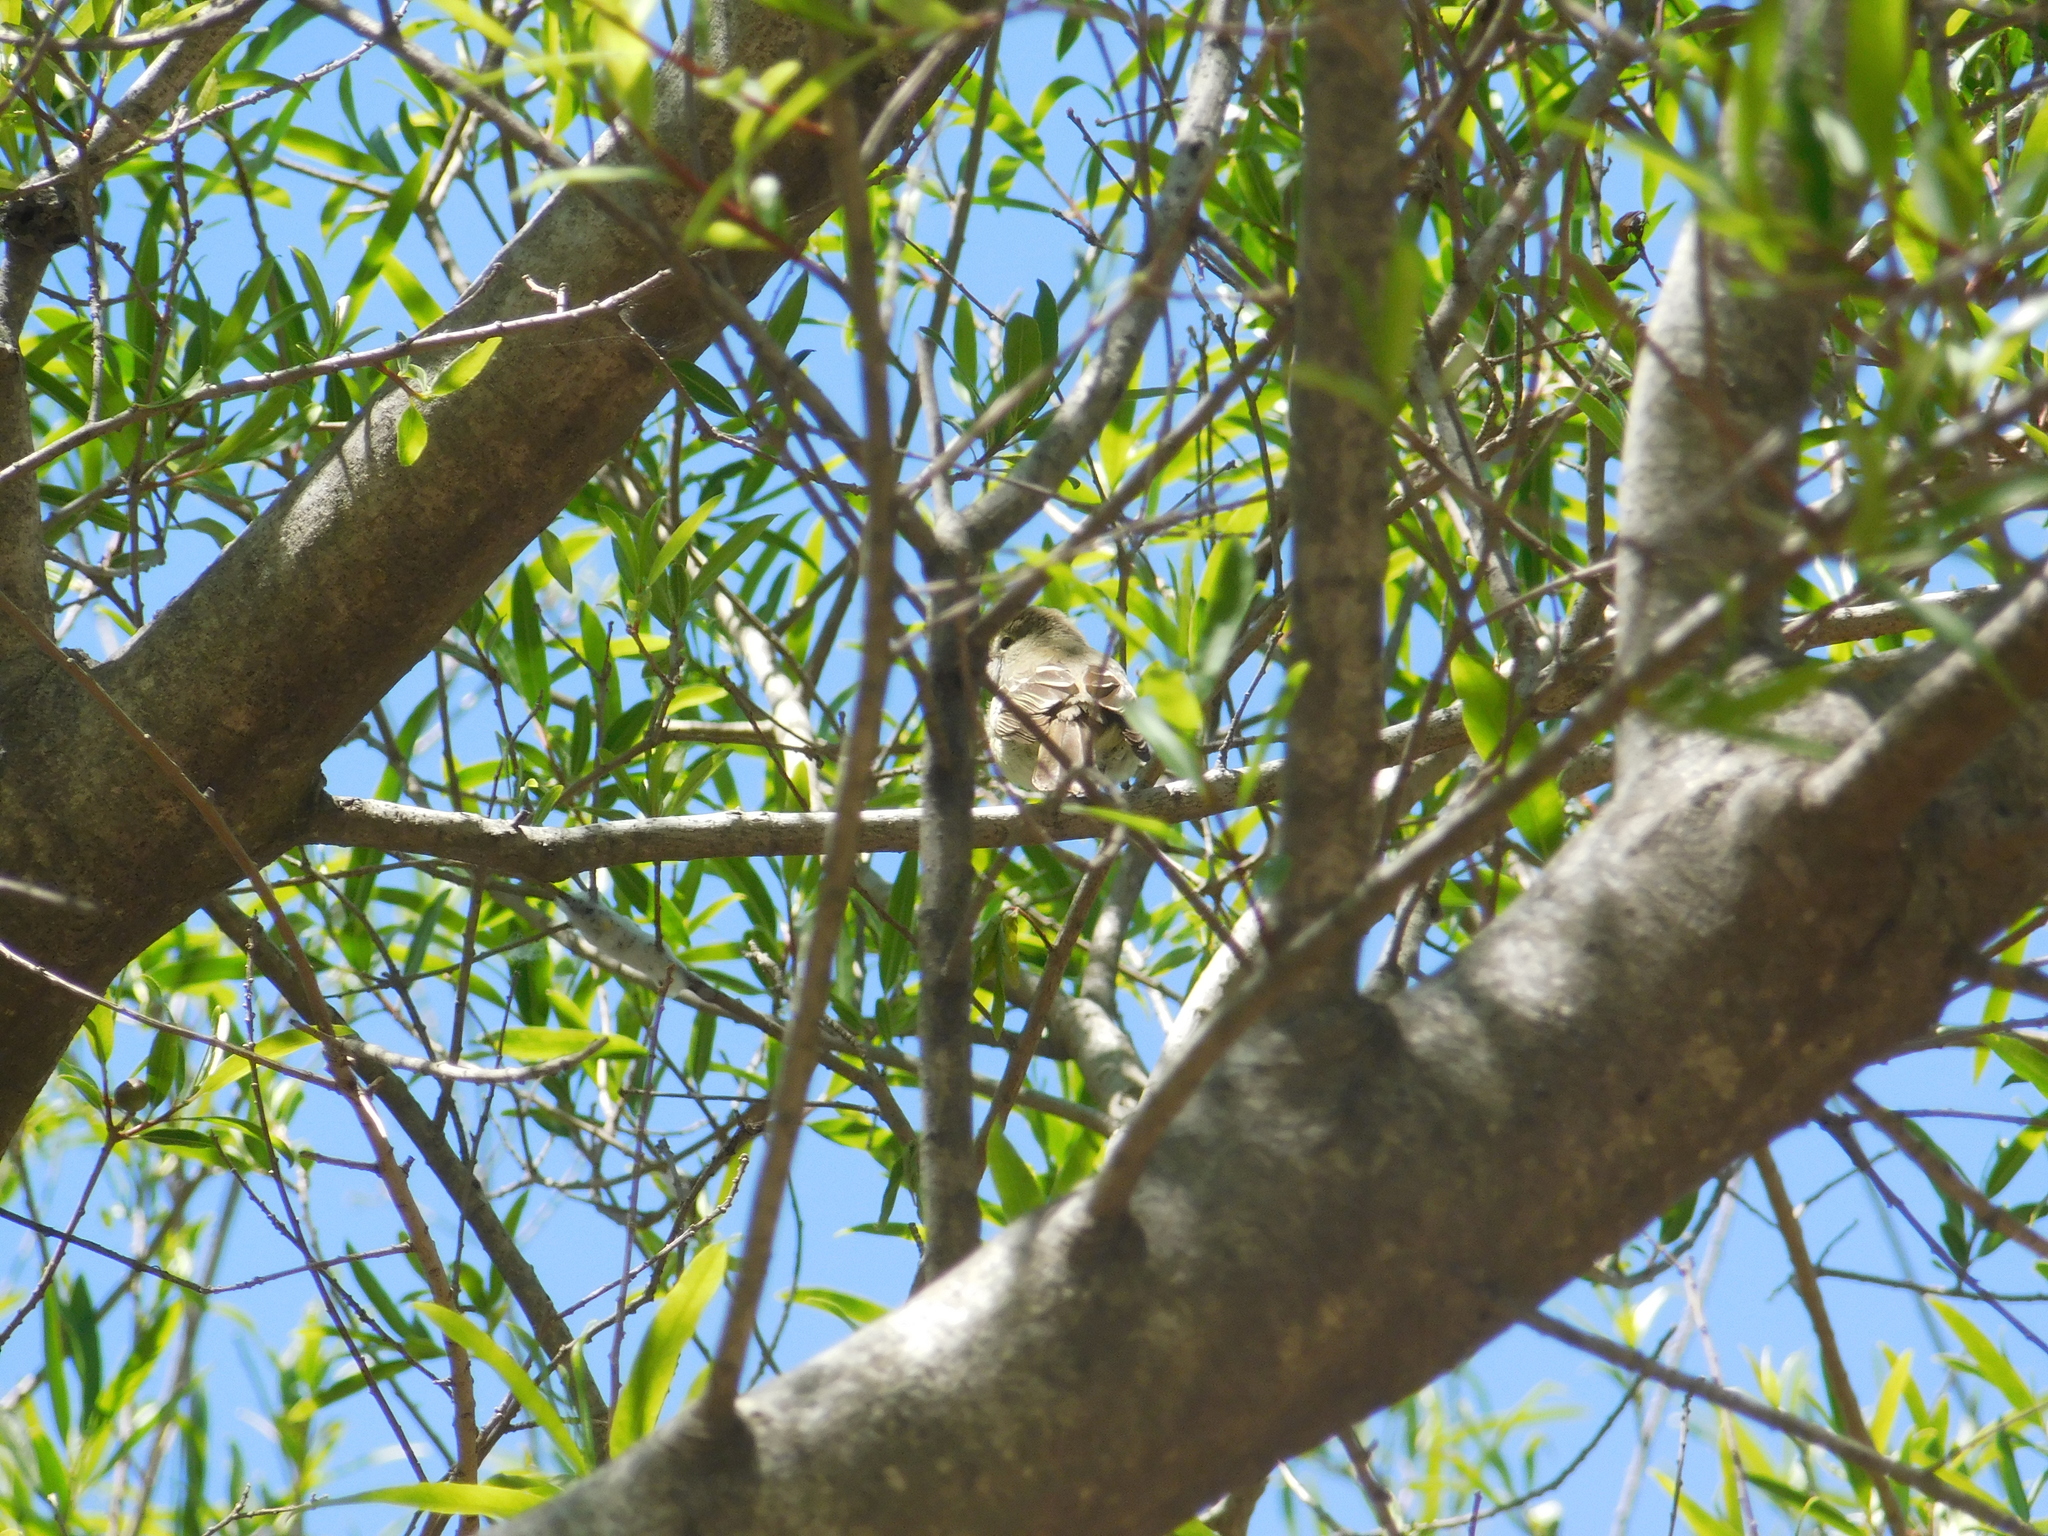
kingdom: Animalia
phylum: Chordata
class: Aves
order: Passeriformes
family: Tyrannidae
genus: Elaenia
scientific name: Elaenia parvirostris
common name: Small-billed elaenia
